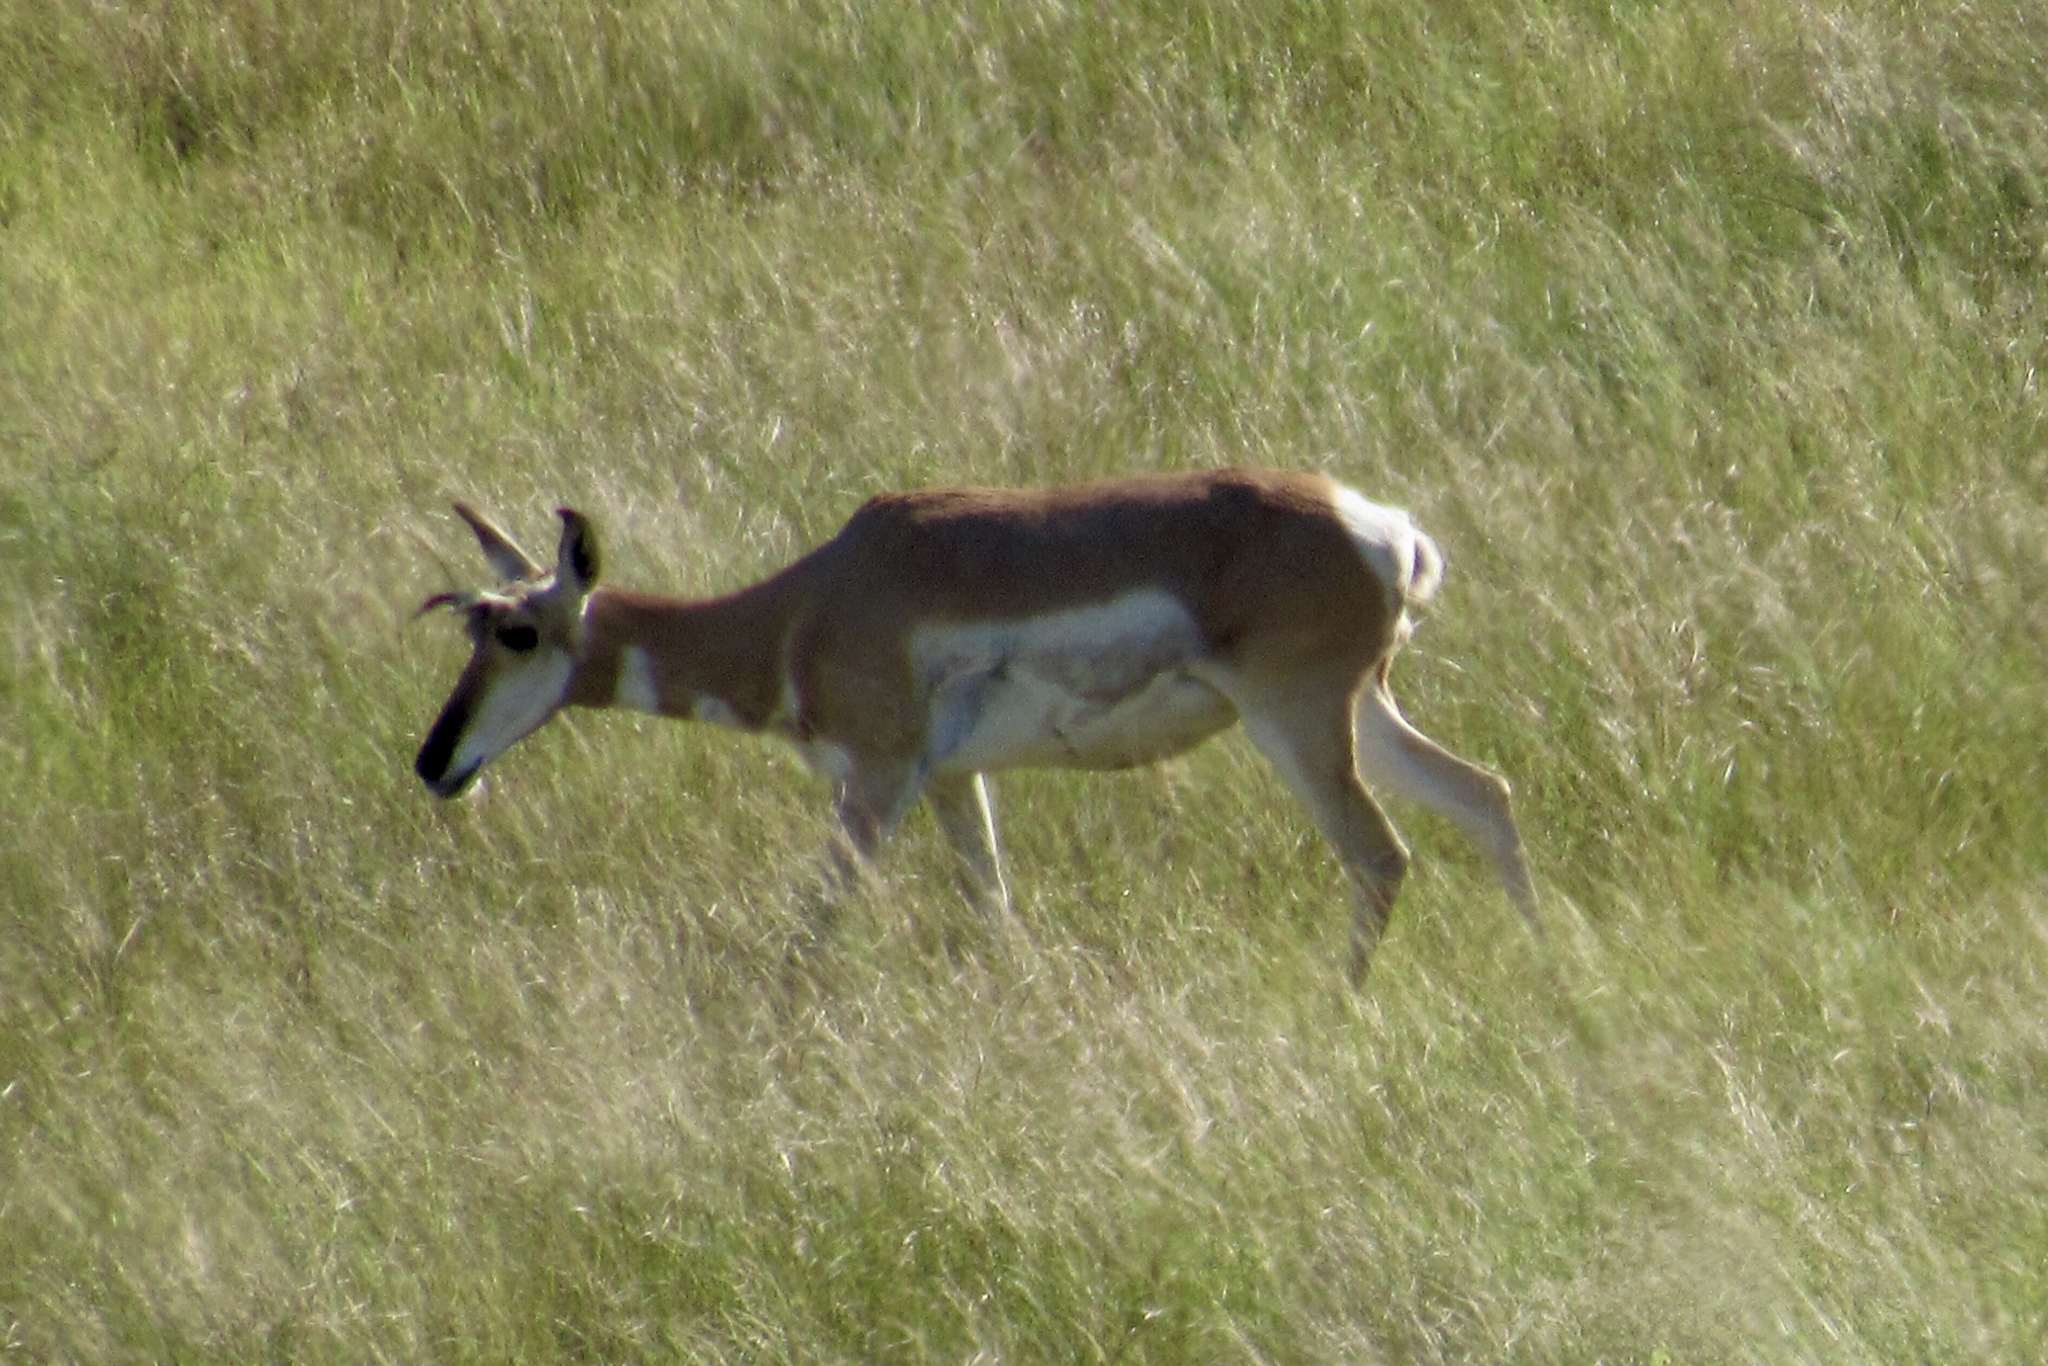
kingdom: Animalia
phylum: Chordata
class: Mammalia
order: Artiodactyla
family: Antilocapridae
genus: Antilocapra
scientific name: Antilocapra americana
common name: Pronghorn
